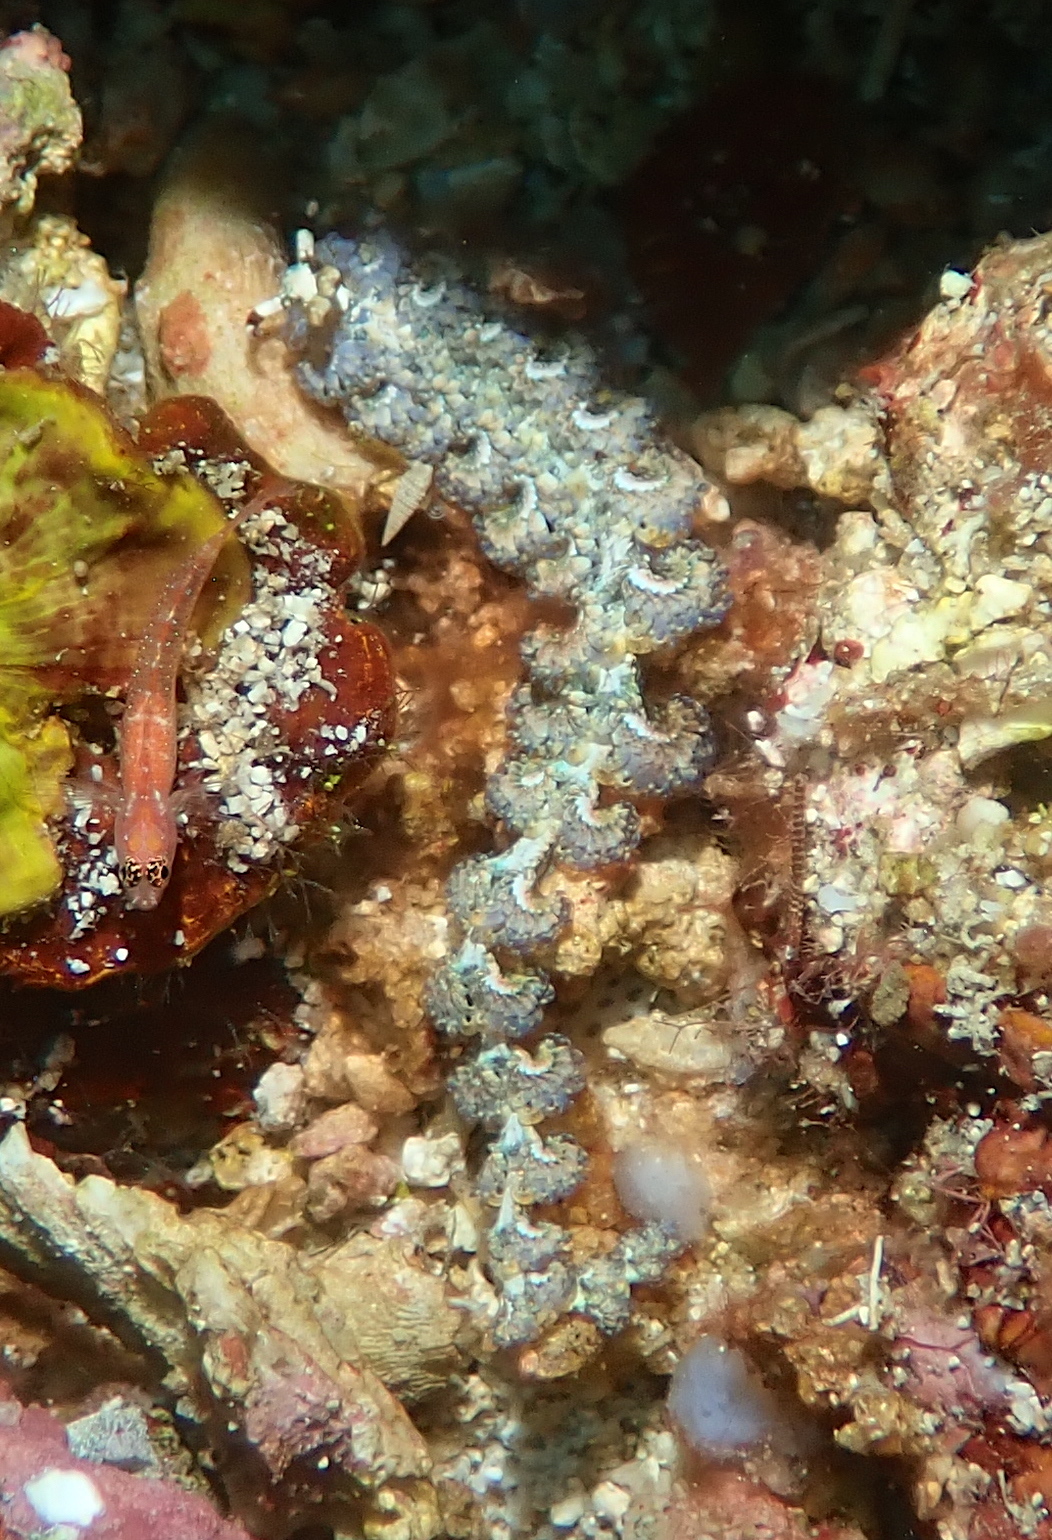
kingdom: Animalia
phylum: Mollusca
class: Gastropoda
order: Nudibranchia
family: Facelinidae
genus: Pteraeolidia
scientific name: Pteraeolidia semperi
